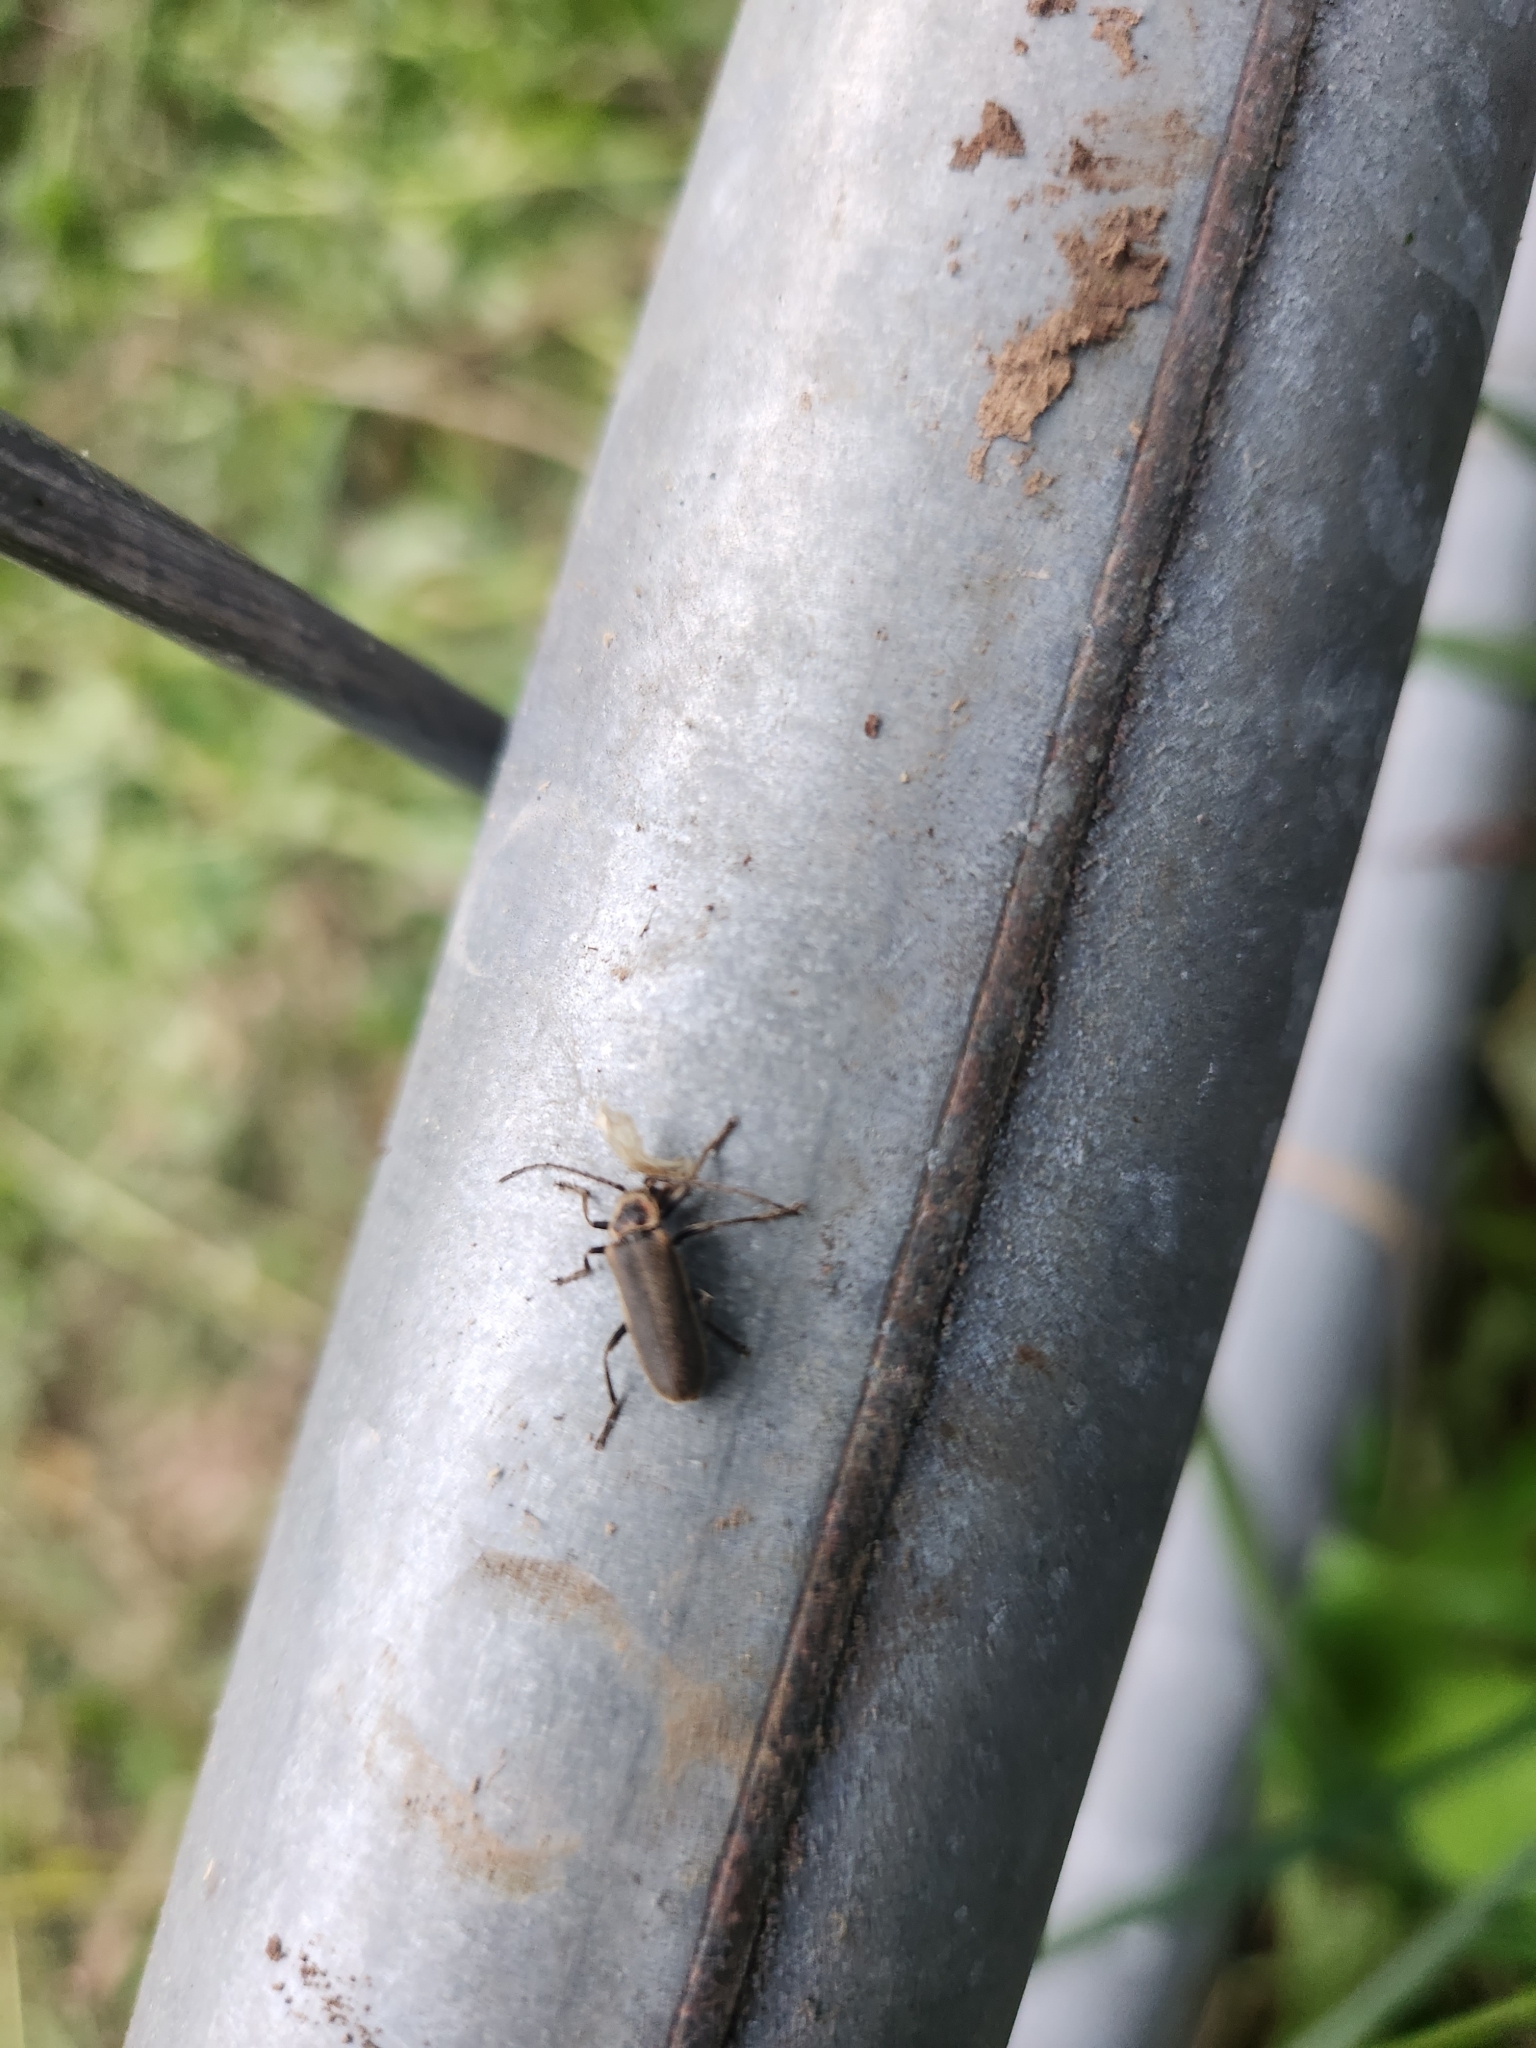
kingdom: Animalia
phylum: Arthropoda
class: Insecta
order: Coleoptera
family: Cantharidae
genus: Atalantycha
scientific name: Atalantycha dentigera
